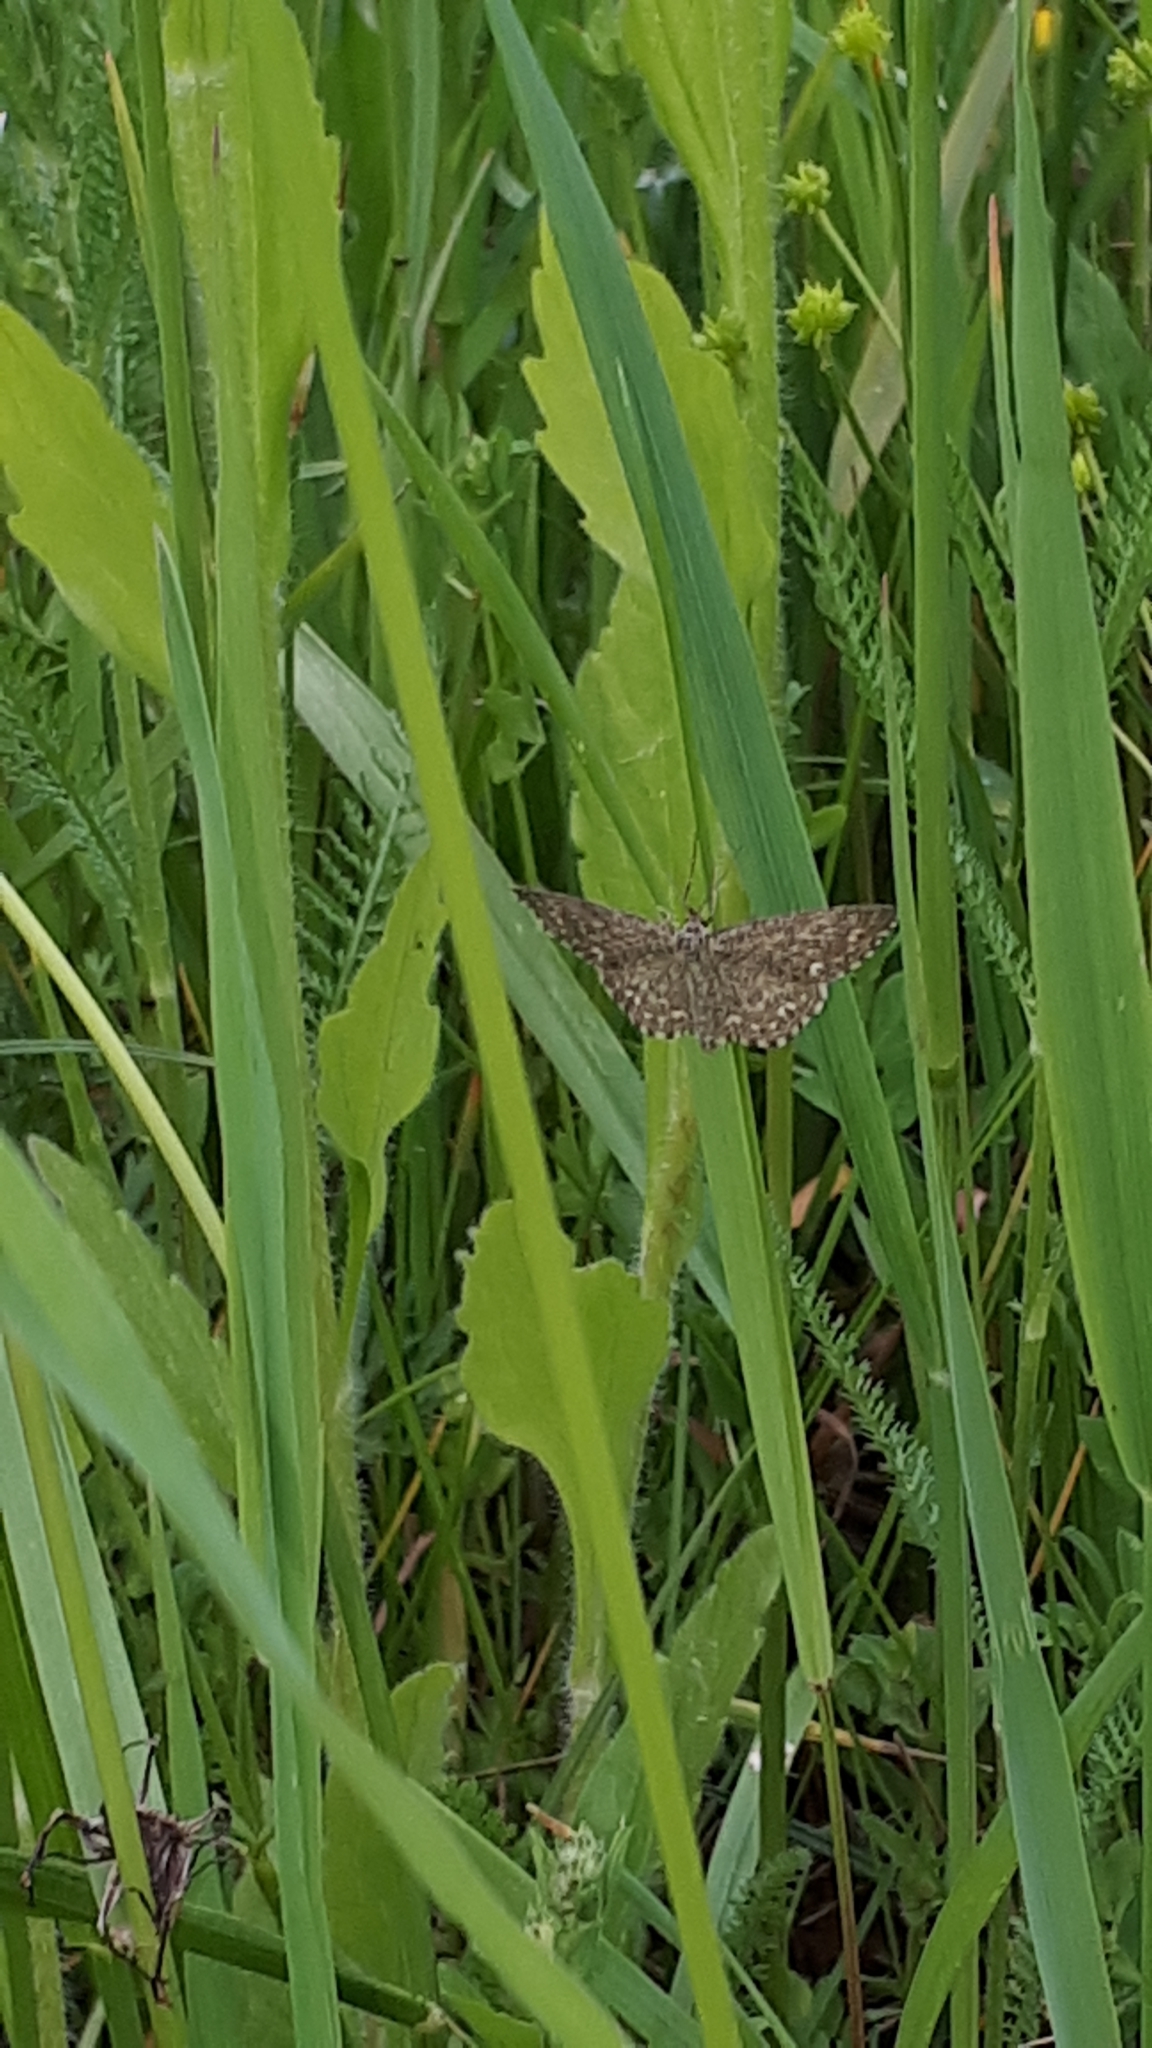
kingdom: Animalia
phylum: Arthropoda
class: Insecta
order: Lepidoptera
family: Geometridae
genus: Scopula
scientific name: Scopula immorata
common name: Lewes wave
